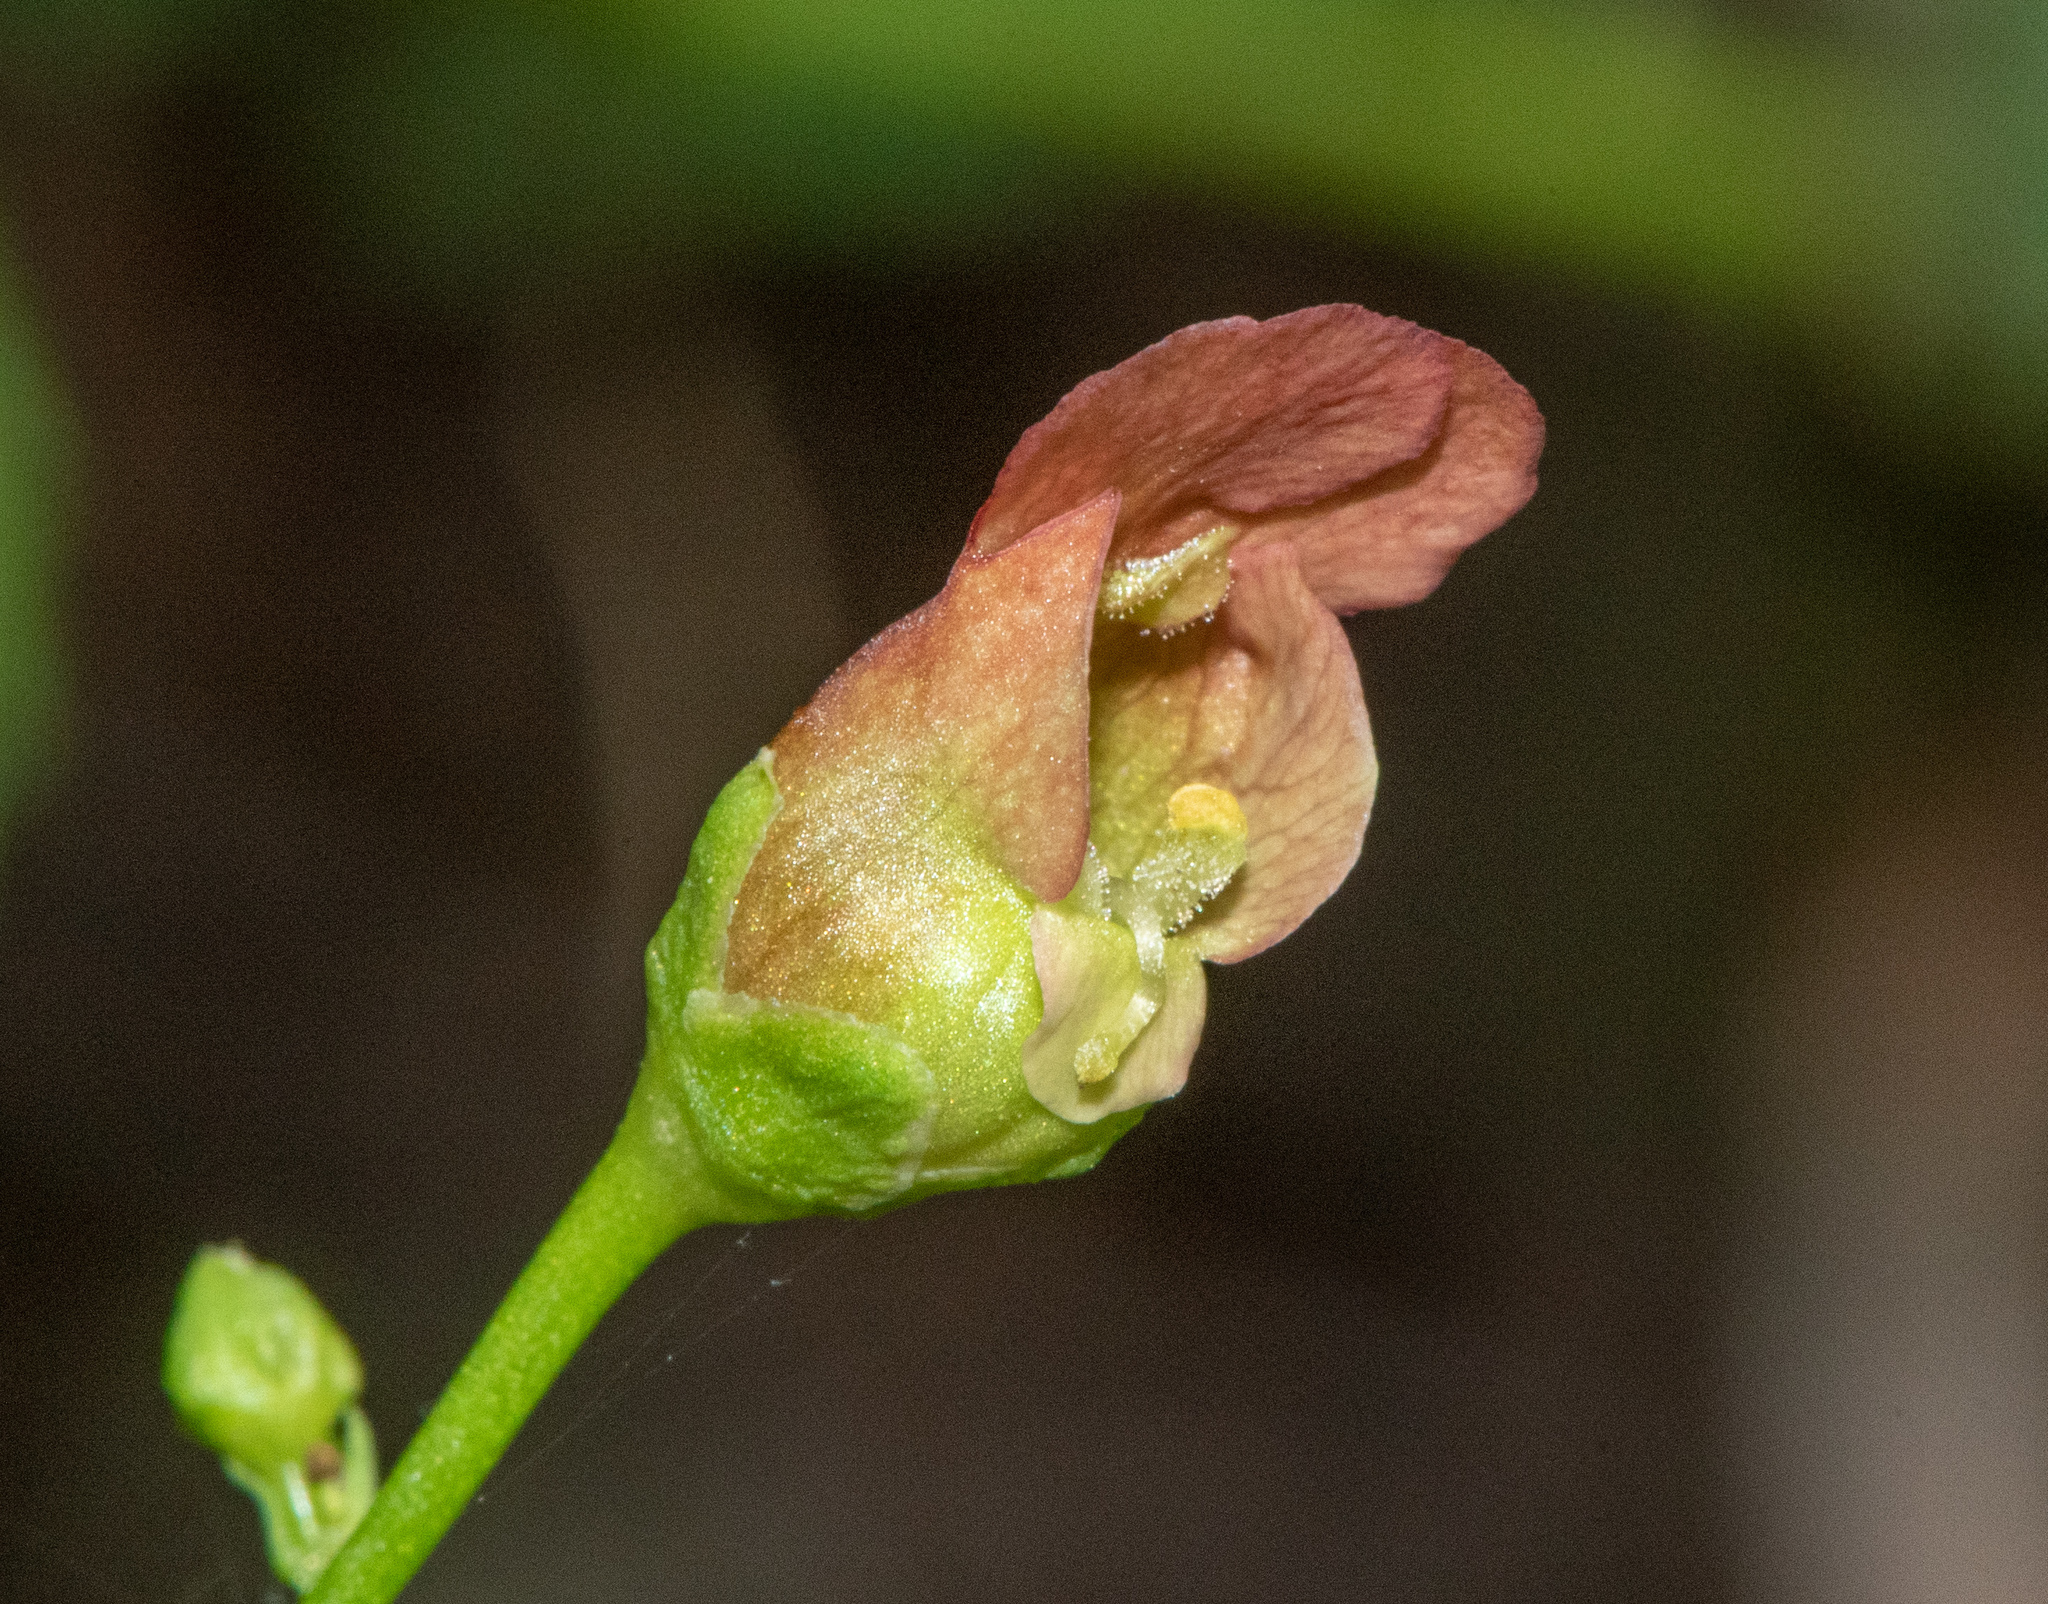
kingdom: Plantae
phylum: Tracheophyta
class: Magnoliopsida
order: Lamiales
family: Scrophulariaceae
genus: Scrophularia
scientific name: Scrophularia californica
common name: California figwort
